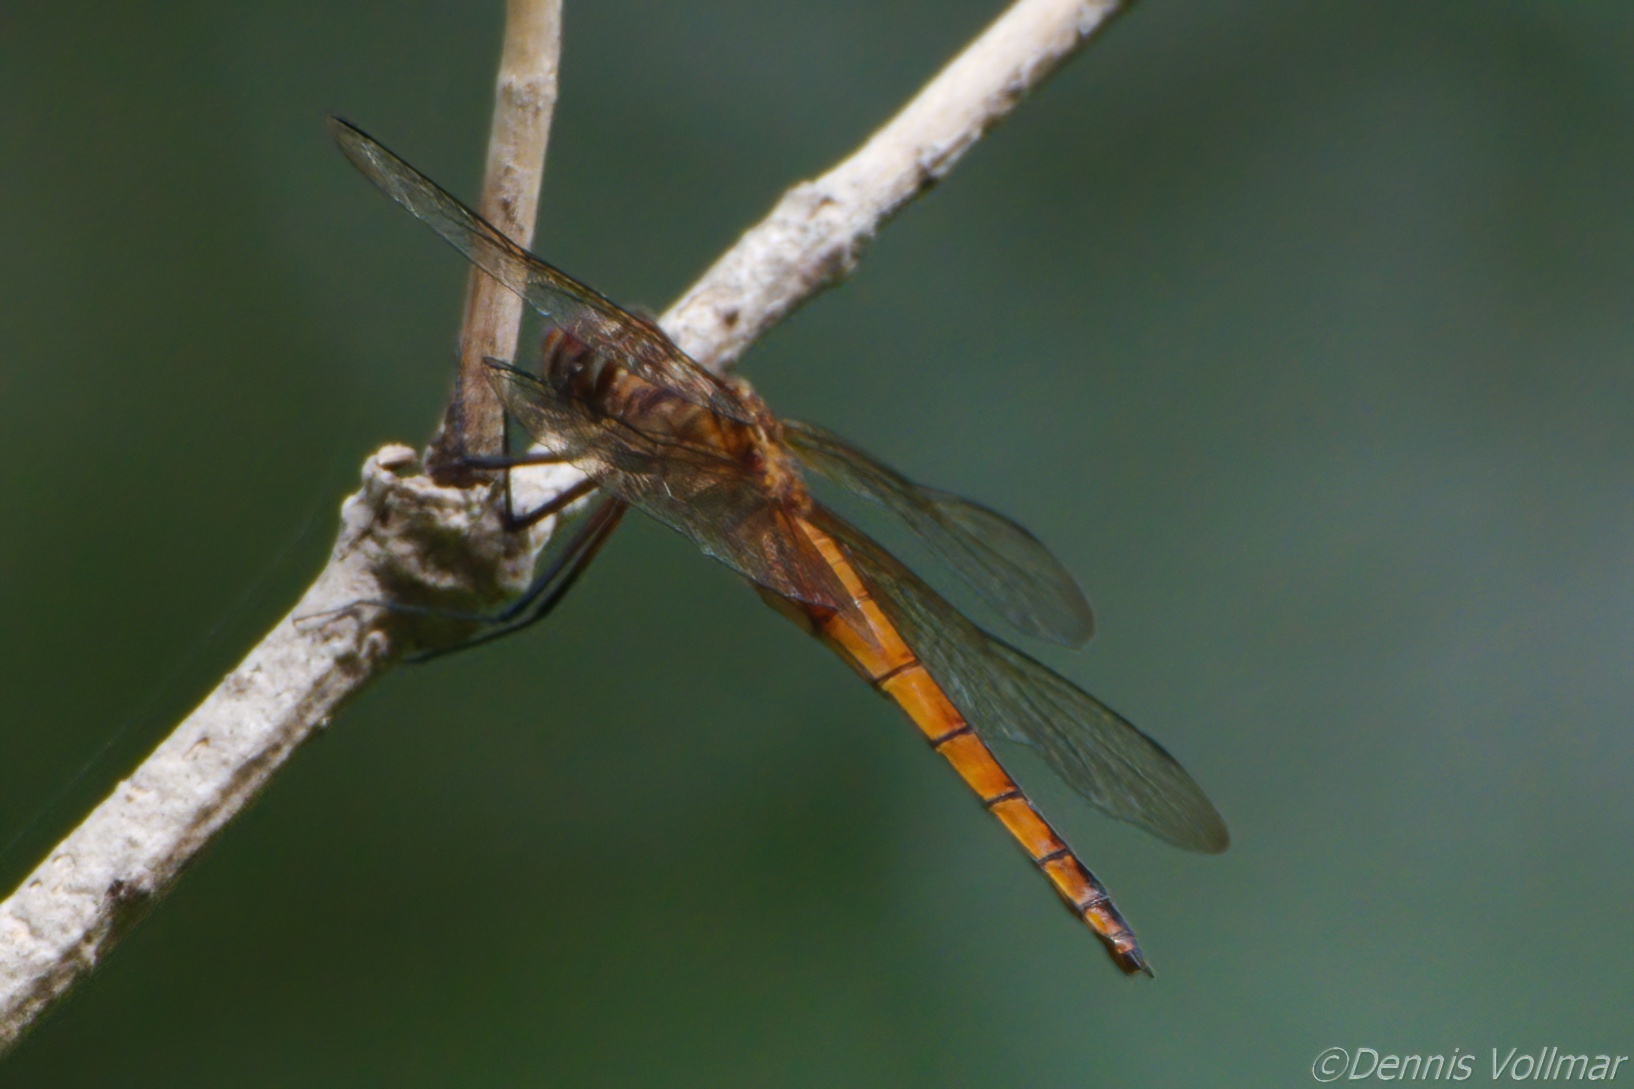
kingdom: Animalia
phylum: Arthropoda
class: Insecta
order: Odonata
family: Libellulidae
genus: Miathyria
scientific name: Miathyria marcella
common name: Hyacinth glider
